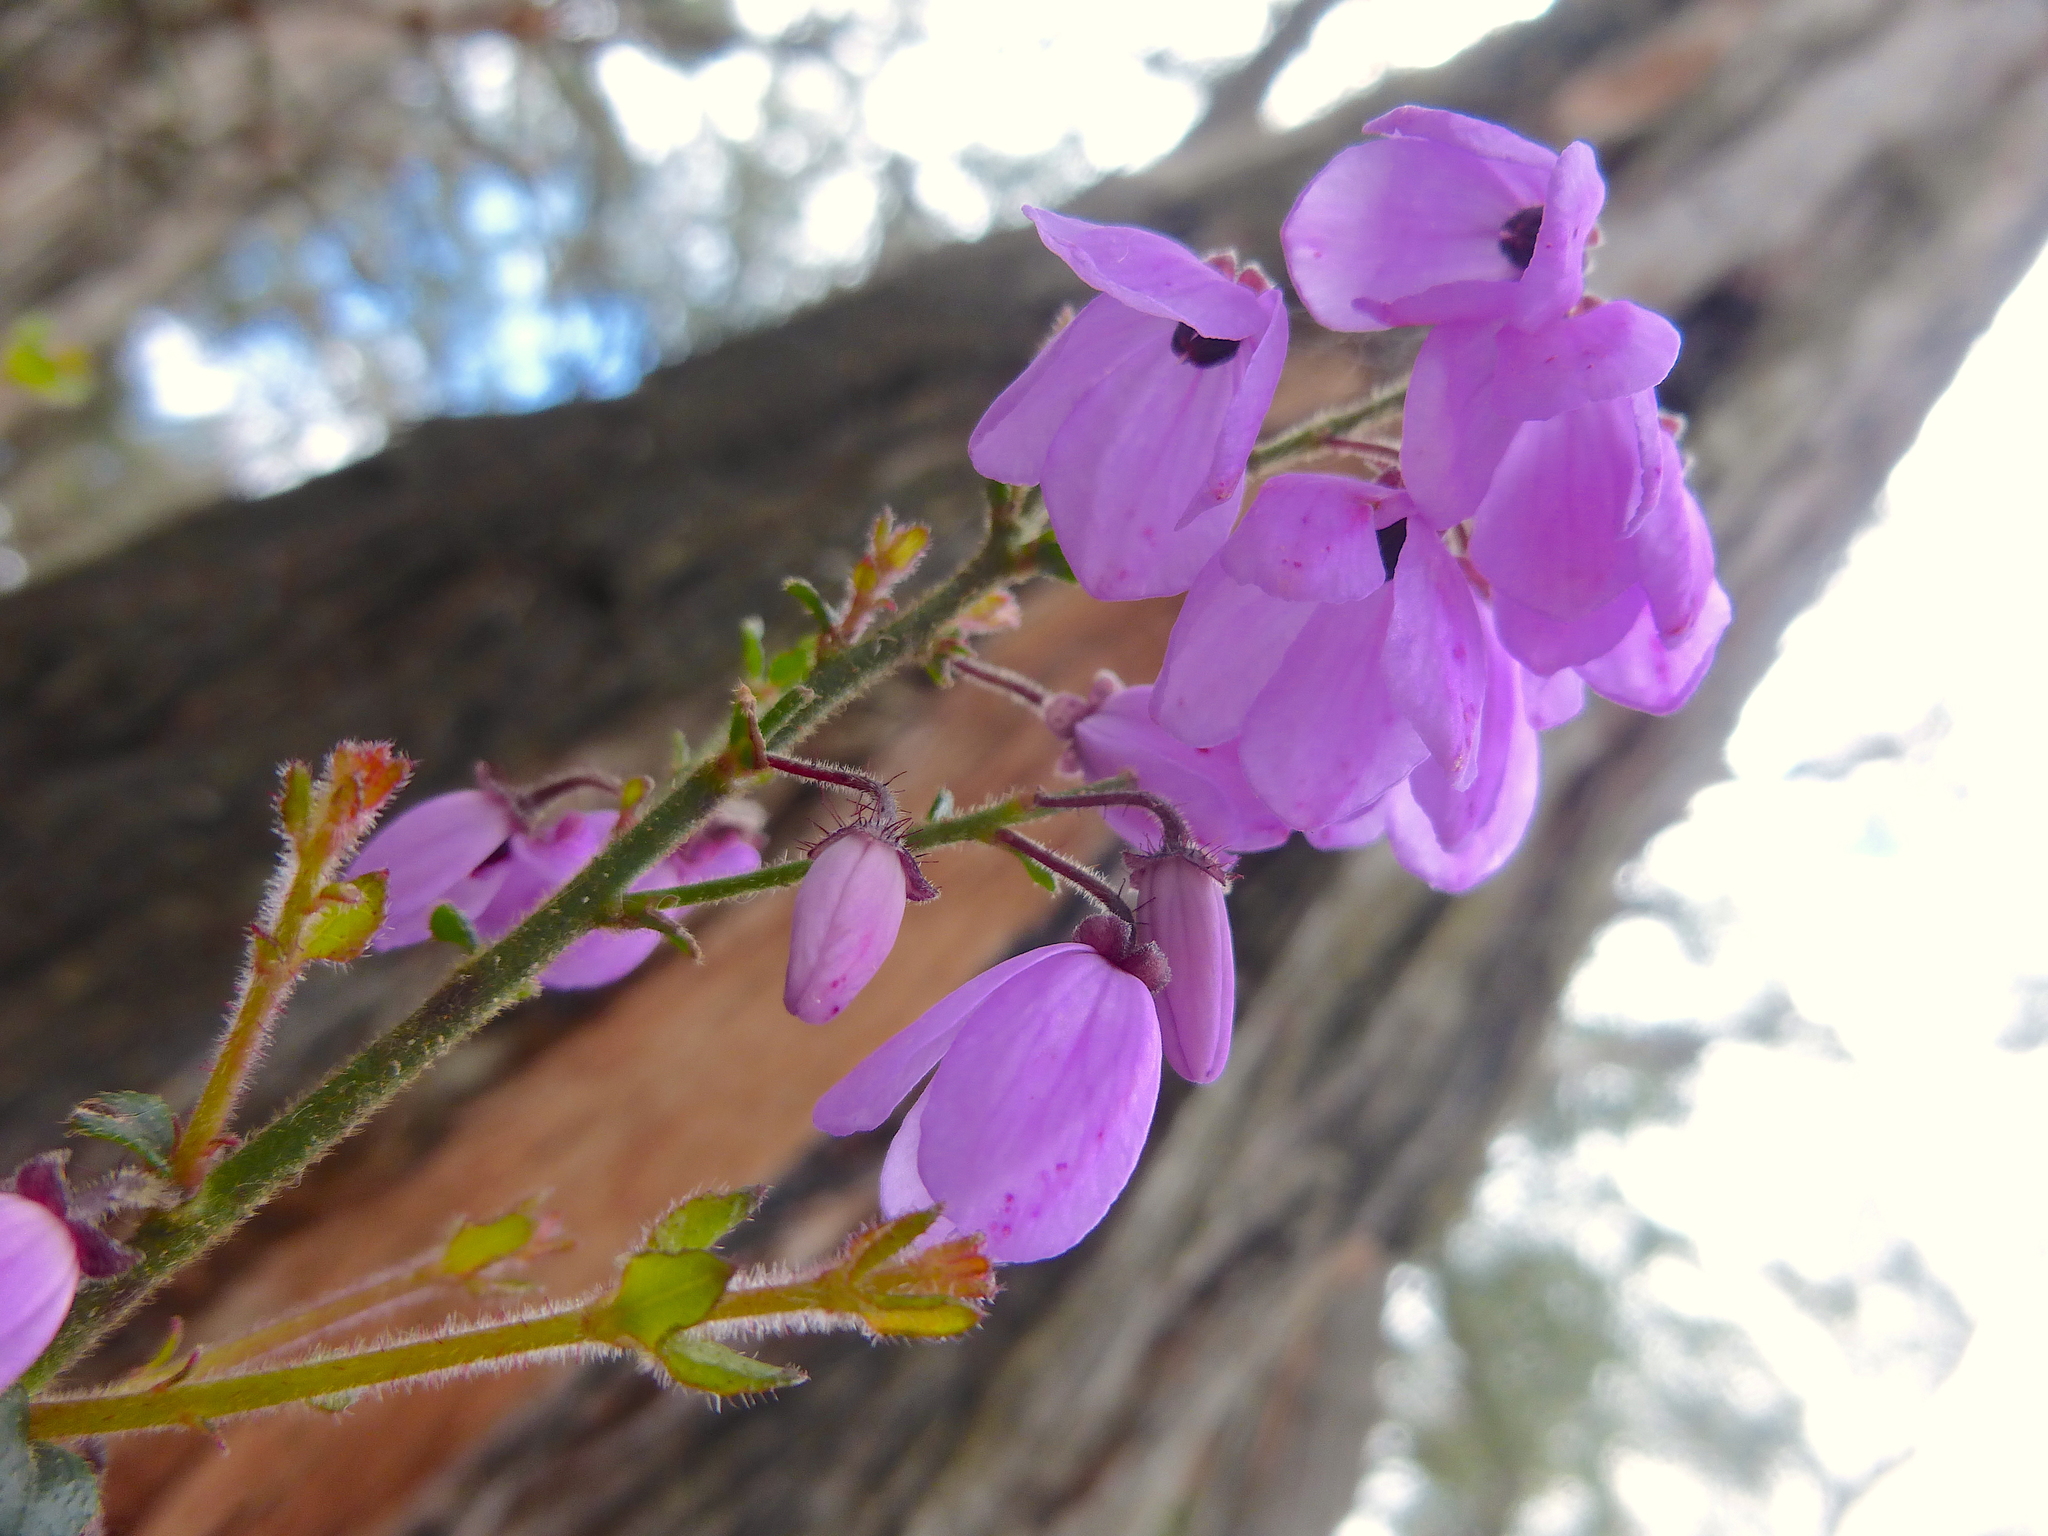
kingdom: Plantae
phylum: Tracheophyta
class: Magnoliopsida
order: Oxalidales
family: Elaeocarpaceae
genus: Tetratheca
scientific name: Tetratheca ciliata
